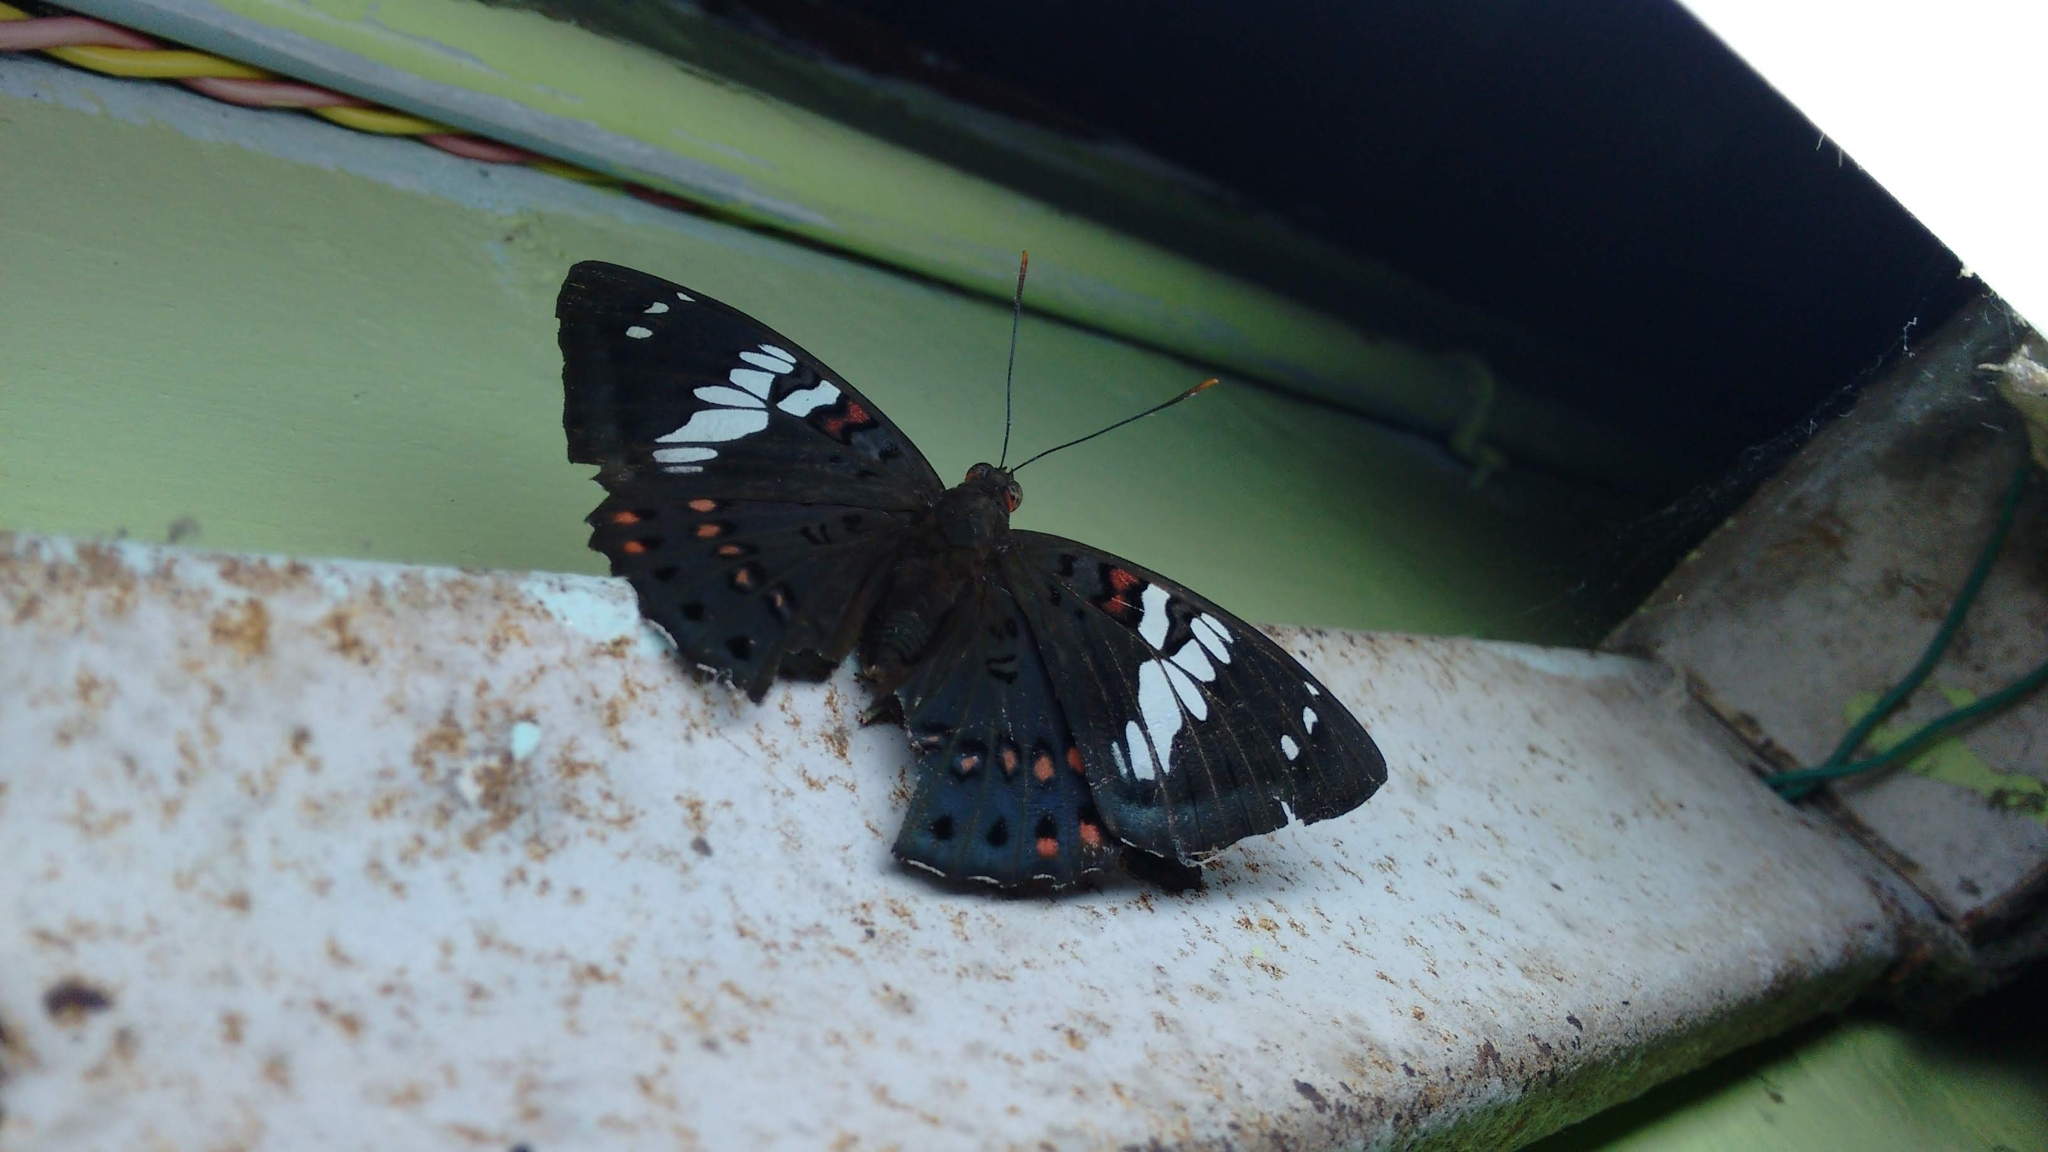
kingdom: Animalia
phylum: Arthropoda
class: Insecta
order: Lepidoptera
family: Nymphalidae
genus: Euthalia
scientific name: Euthalia lubentina
